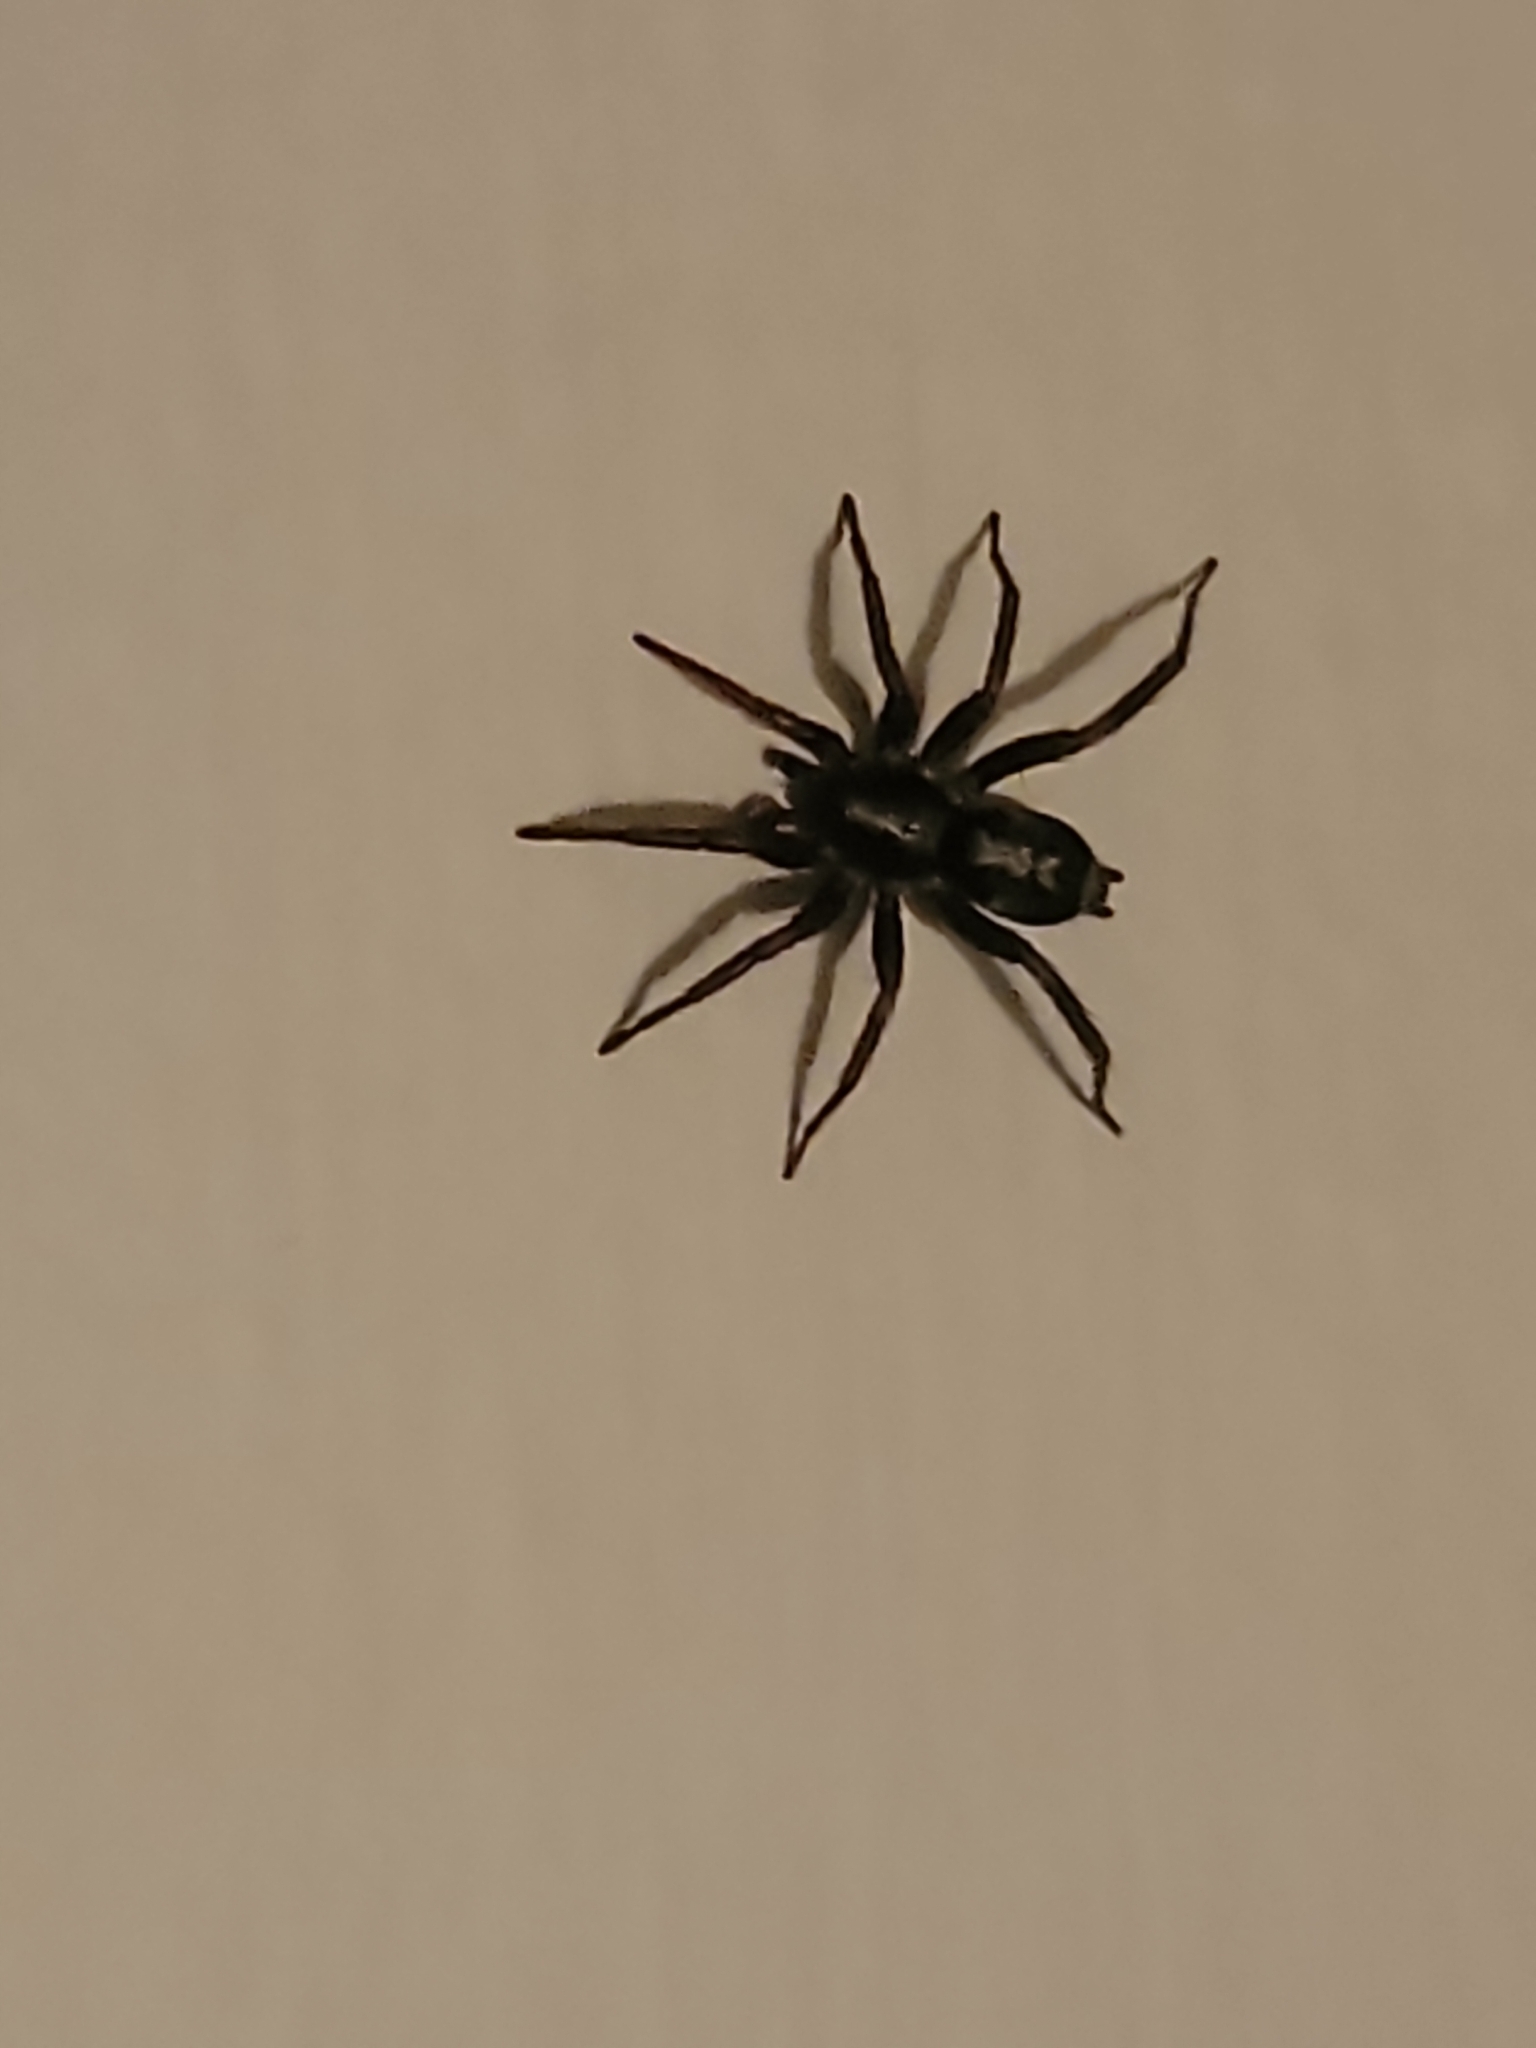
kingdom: Animalia
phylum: Arthropoda
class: Arachnida
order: Araneae
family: Gnaphosidae
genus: Herpyllus
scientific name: Herpyllus ecclesiasticus
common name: Eastern parson spider
